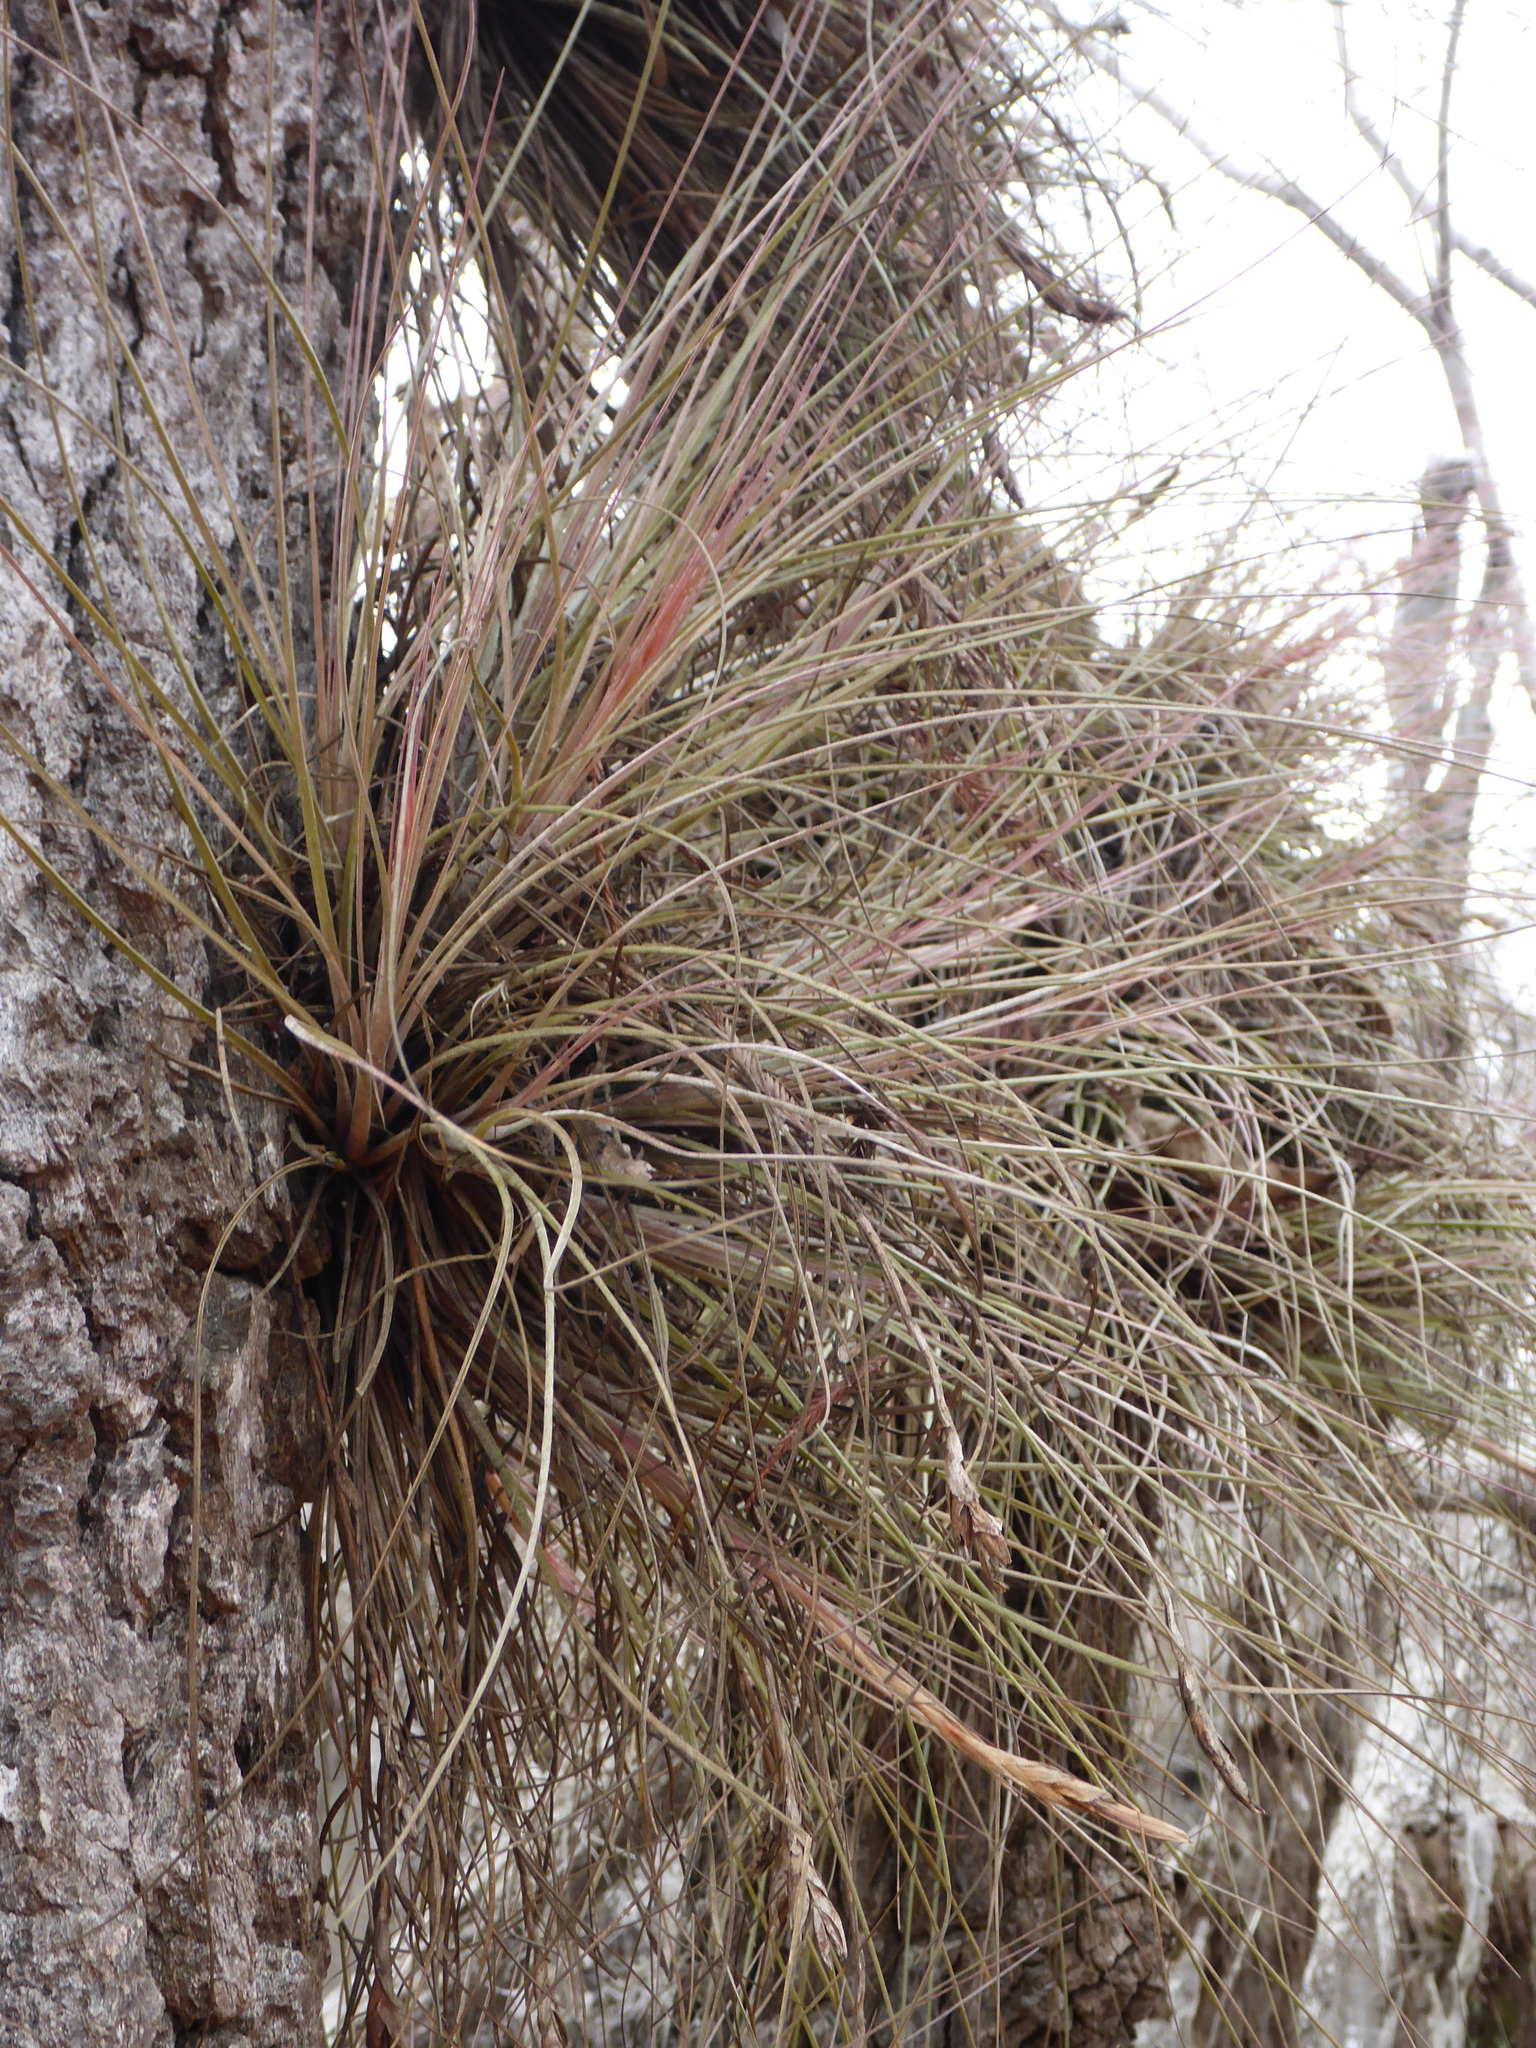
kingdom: Plantae
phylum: Tracheophyta
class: Liliopsida
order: Poales
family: Bromeliaceae
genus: Tillandsia
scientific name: Tillandsia bartramii
